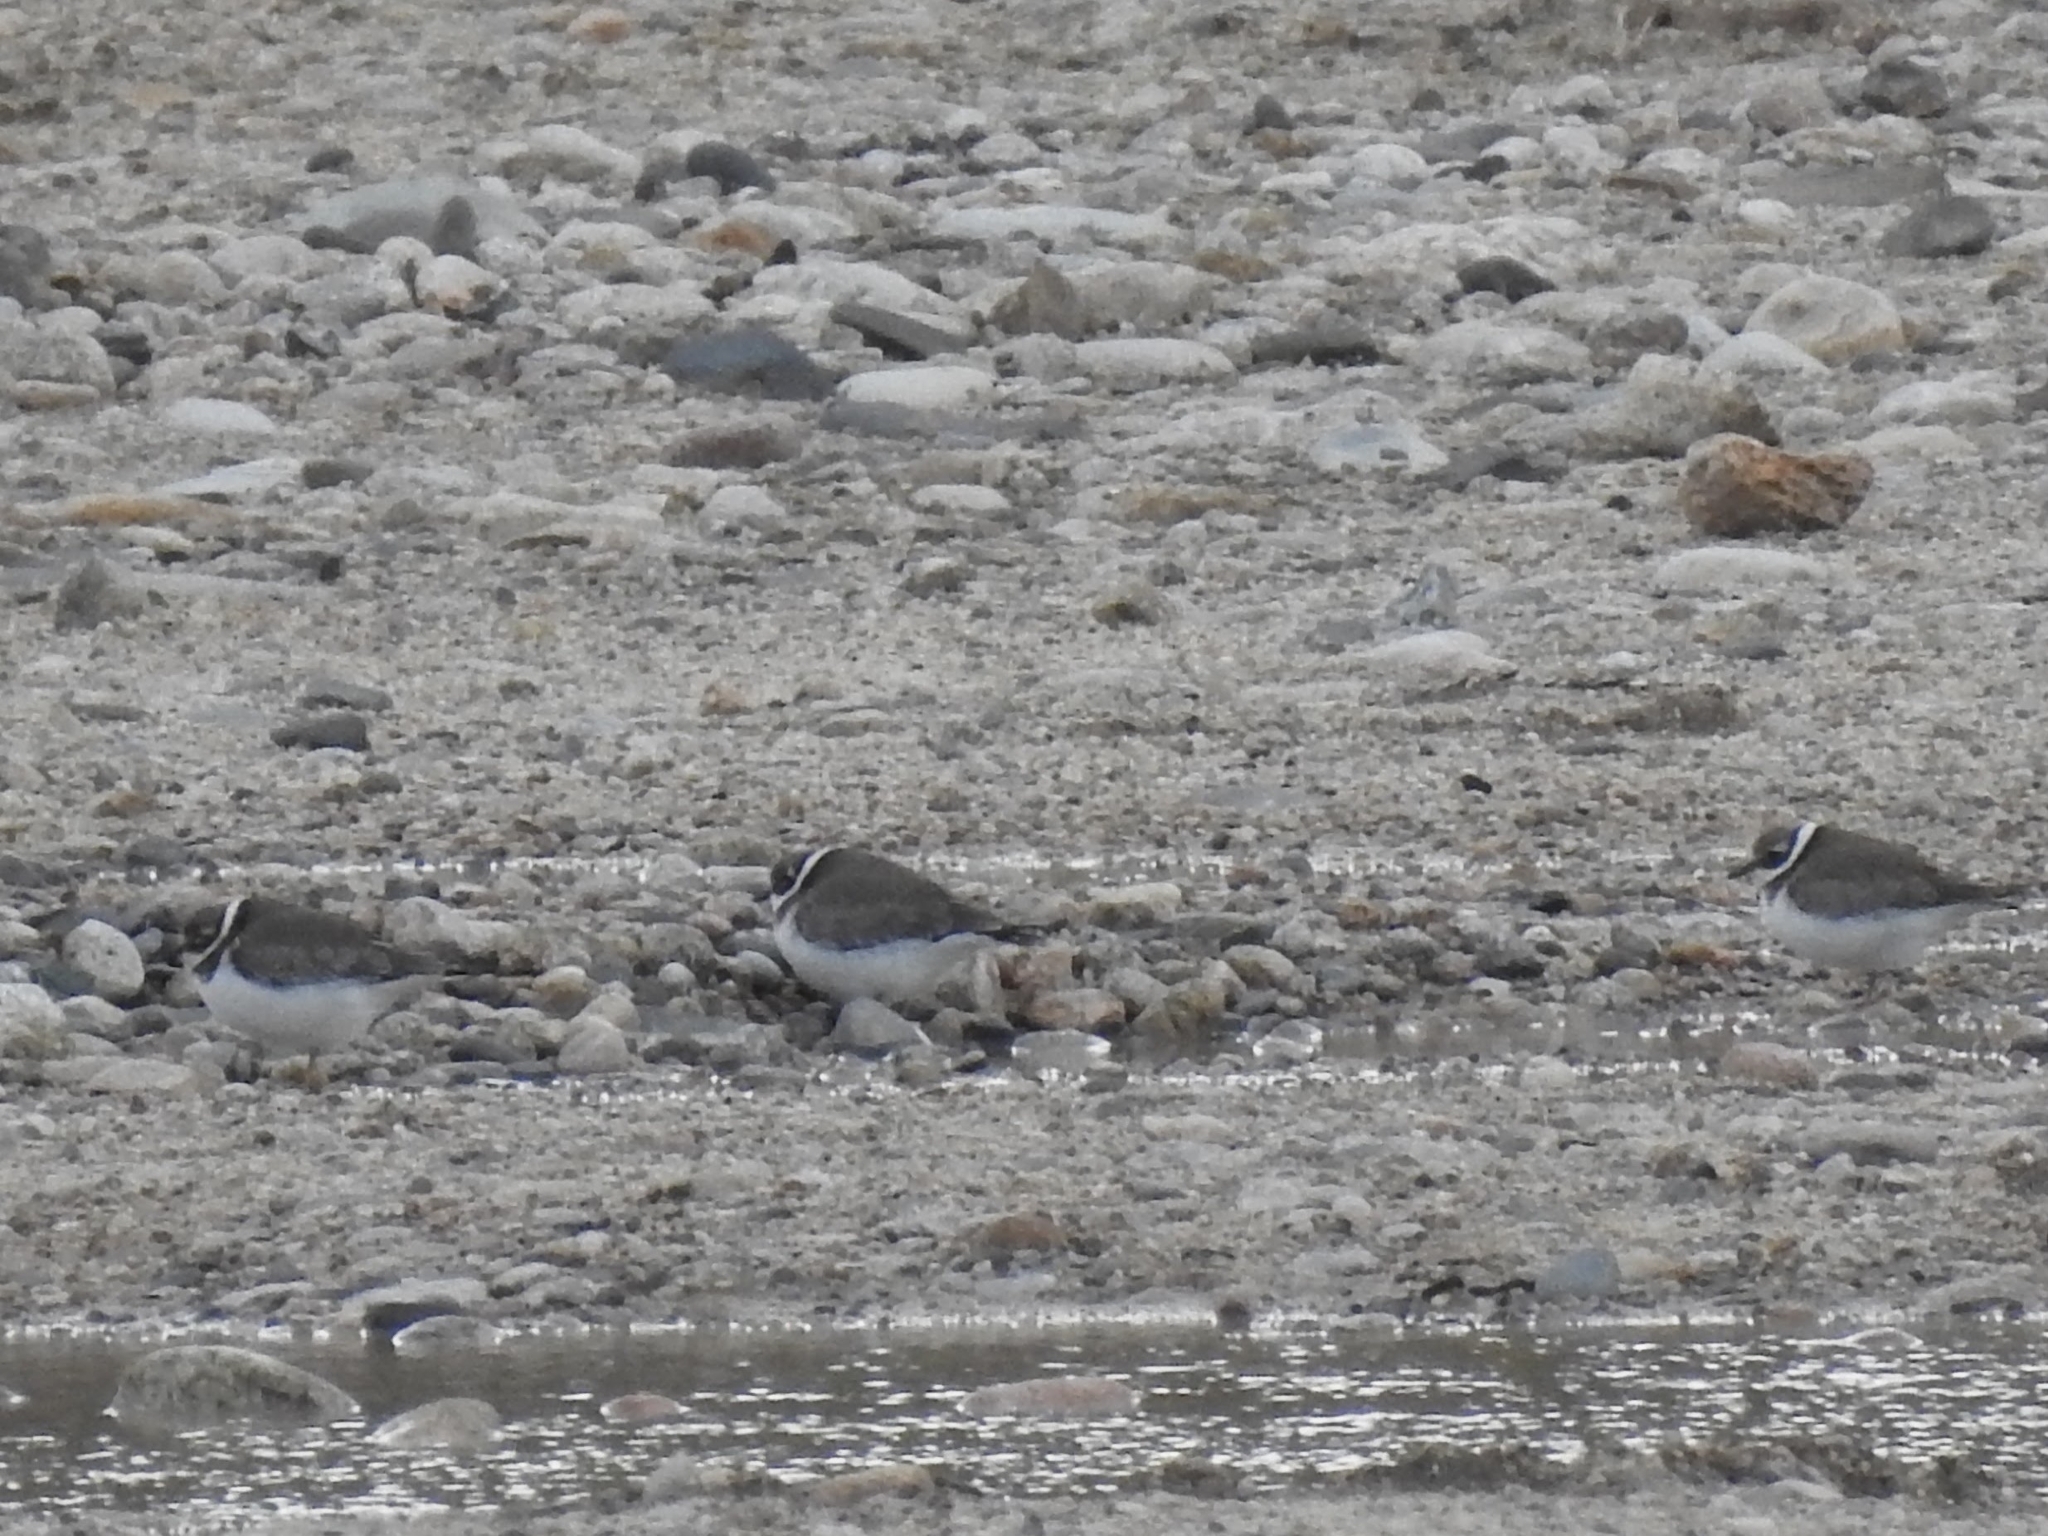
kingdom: Animalia
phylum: Chordata
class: Aves
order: Charadriiformes
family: Charadriidae
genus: Charadrius
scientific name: Charadrius hiaticula
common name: Common ringed plover
